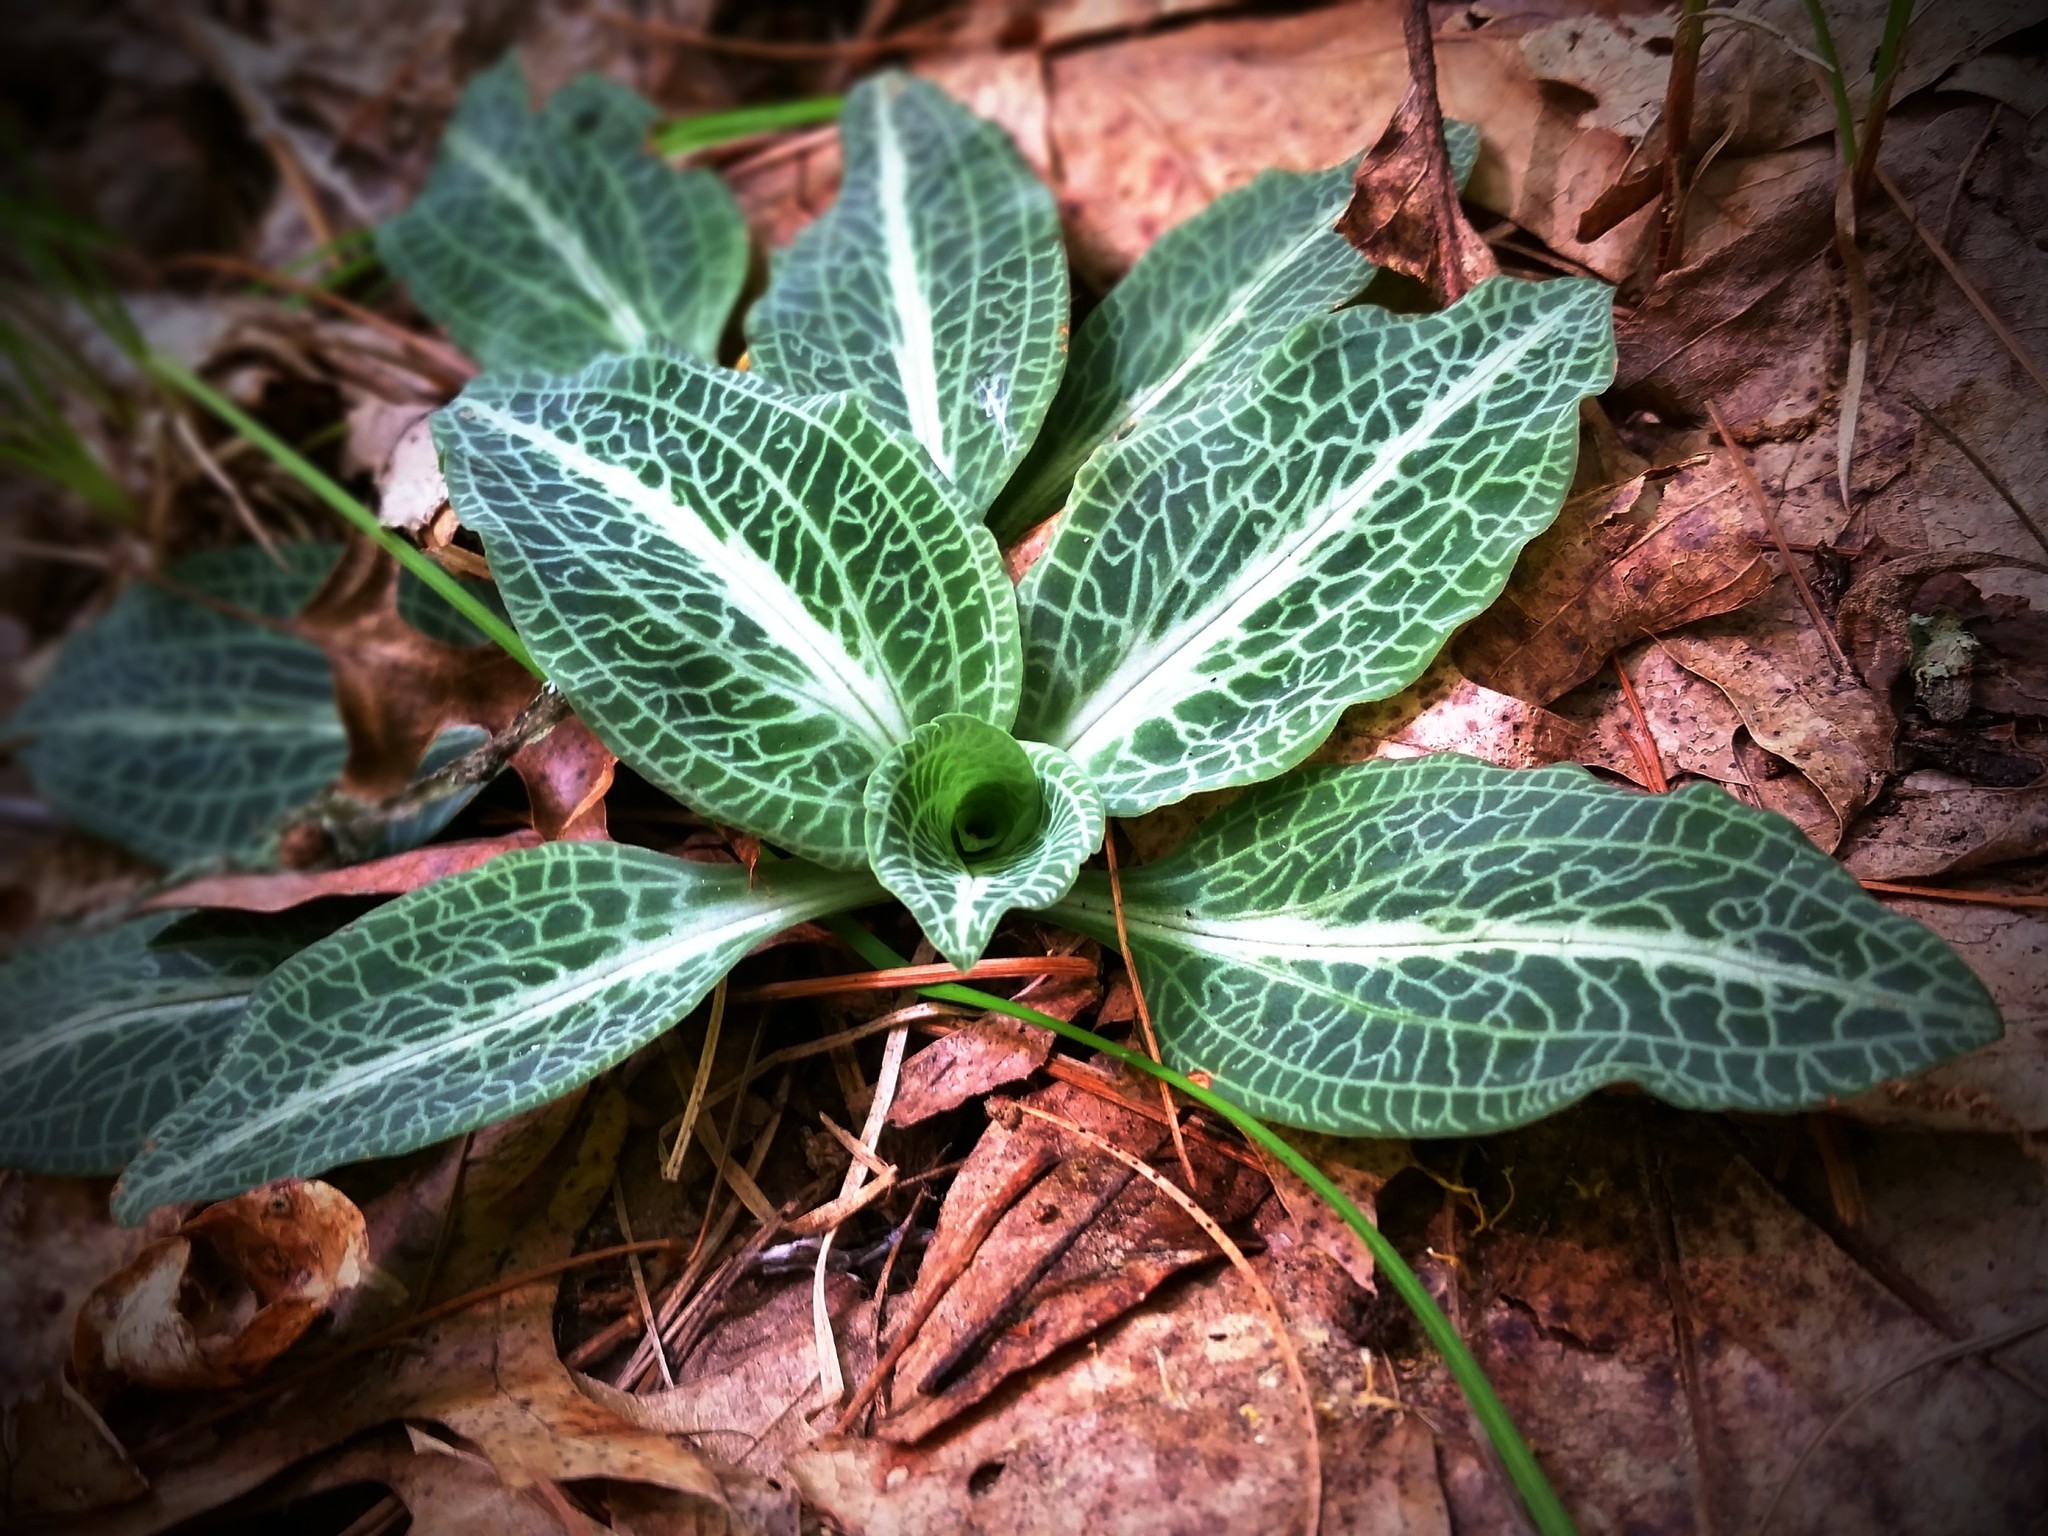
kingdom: Plantae
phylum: Tracheophyta
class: Liliopsida
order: Asparagales
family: Orchidaceae
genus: Goodyera
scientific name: Goodyera pubescens
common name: Downy rattlesnake-plantain
